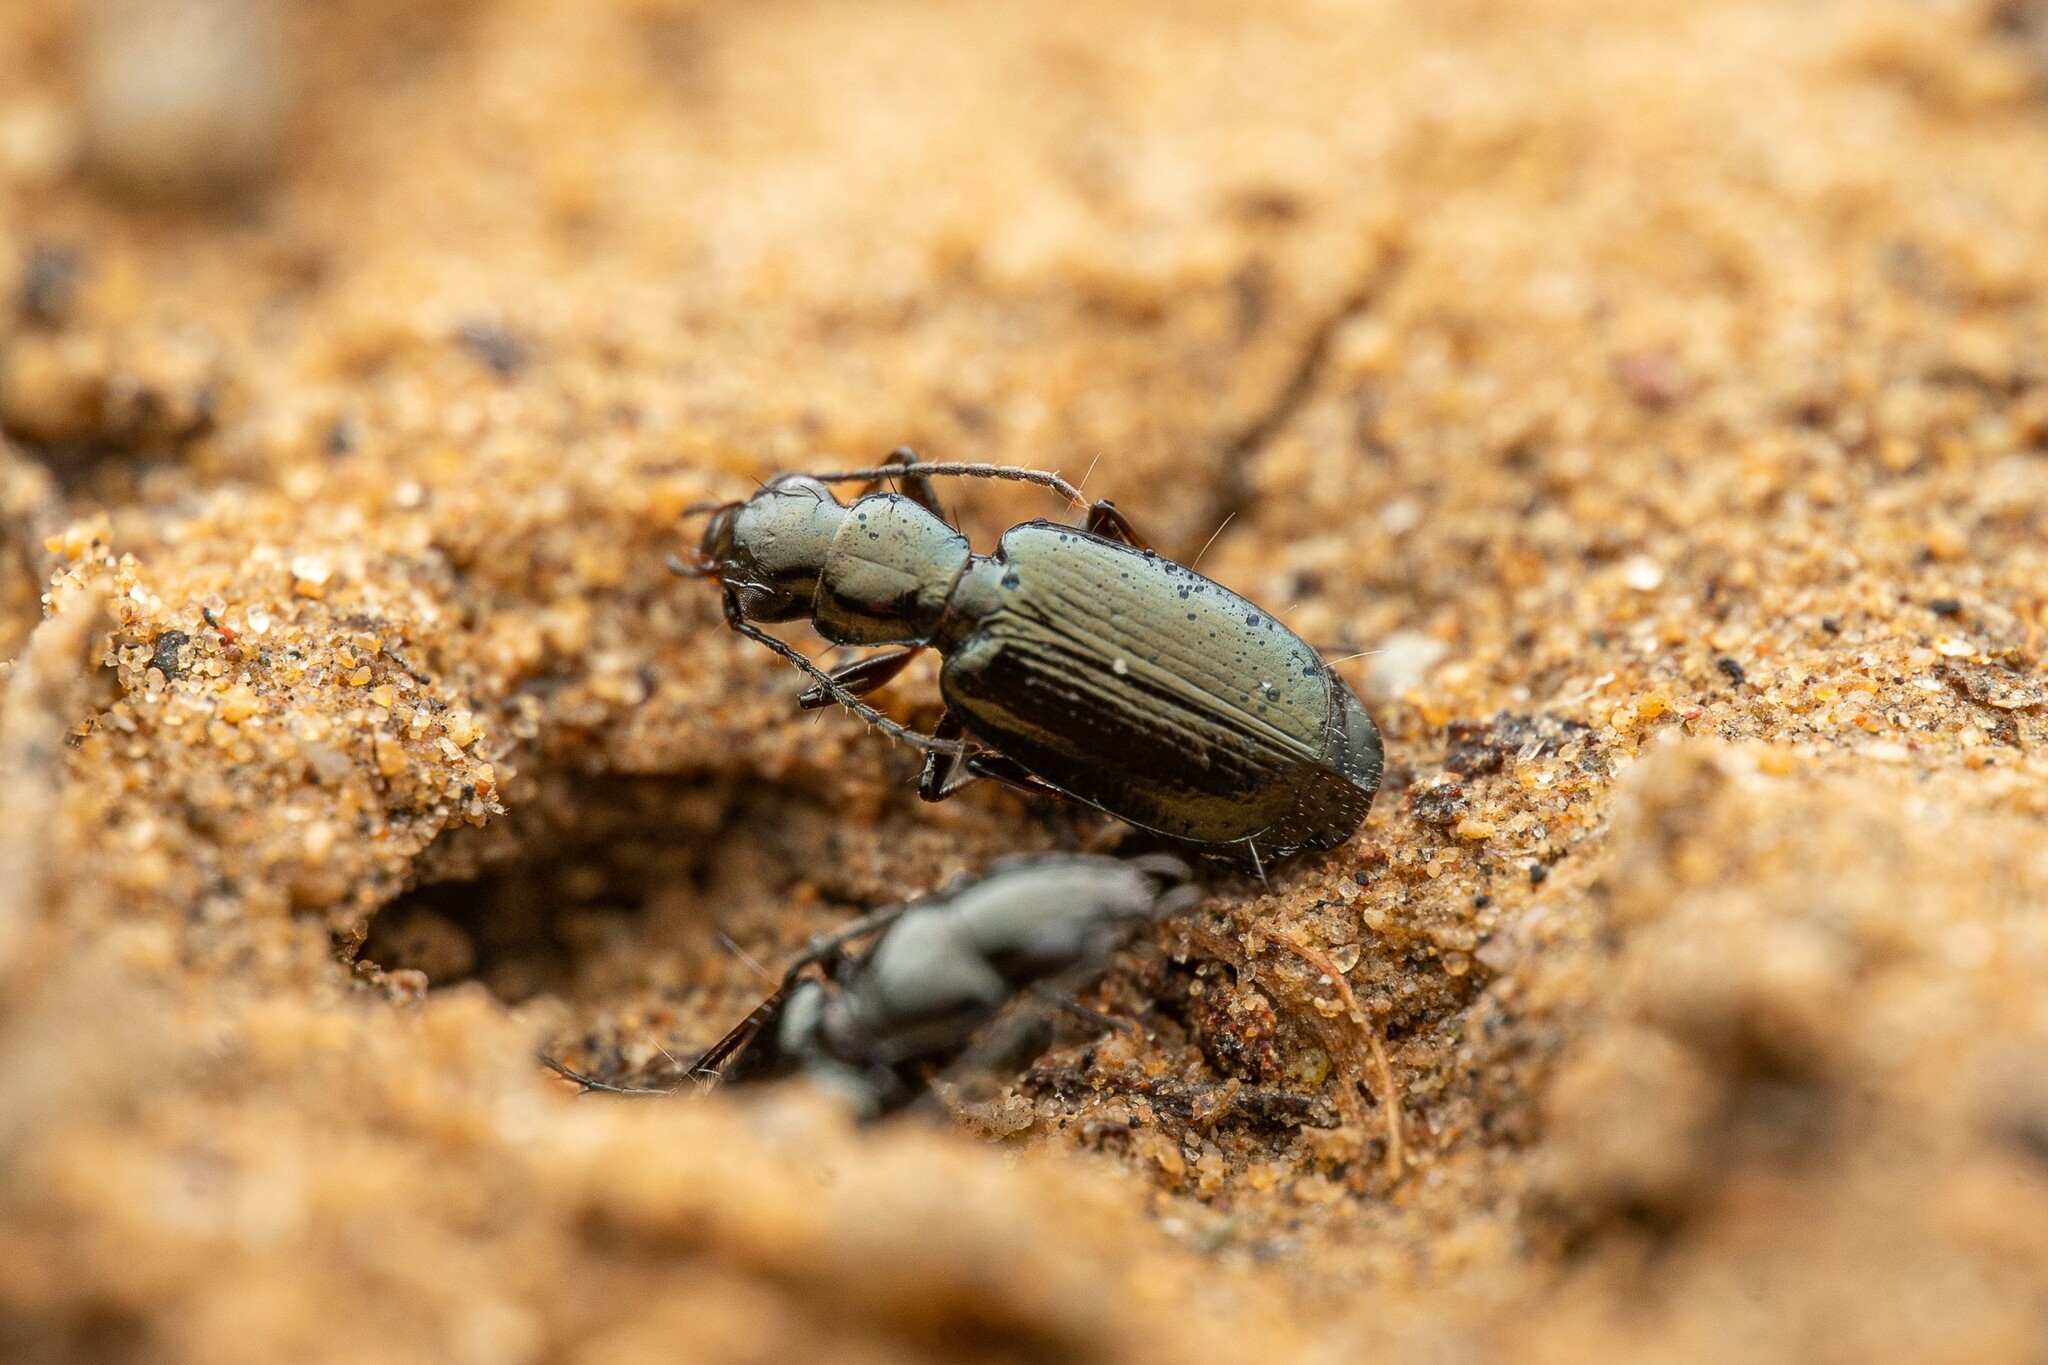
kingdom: Animalia
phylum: Arthropoda
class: Insecta
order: Coleoptera
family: Carabidae
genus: Apristus
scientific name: Apristus
